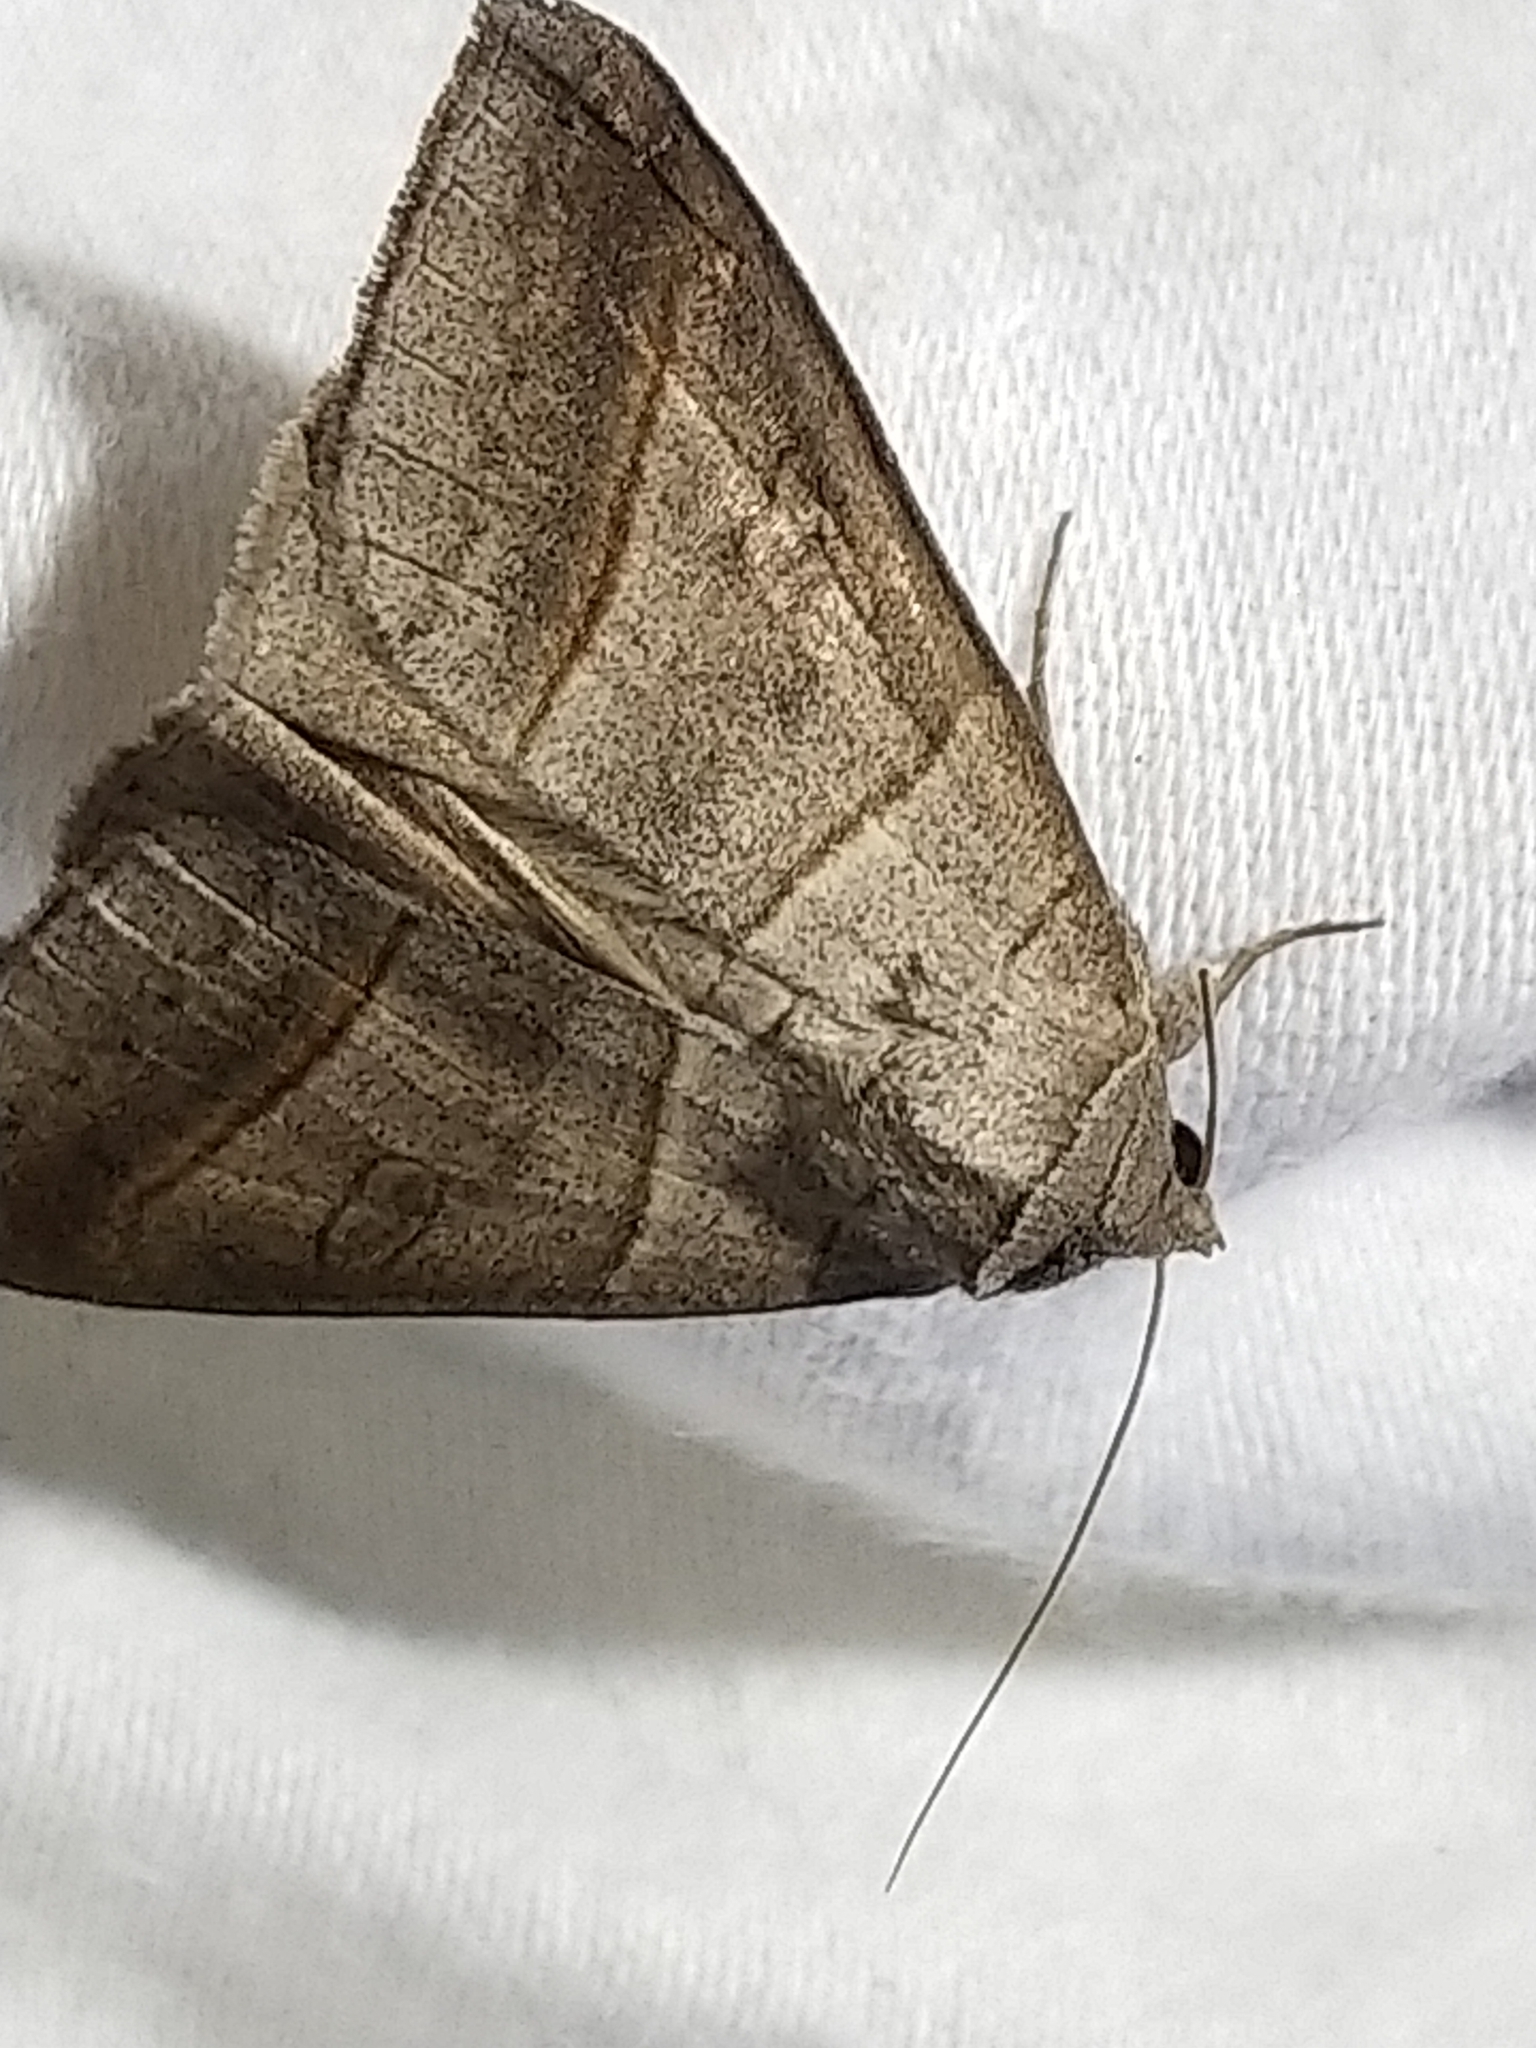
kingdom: Animalia
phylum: Arthropoda
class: Insecta
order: Lepidoptera
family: Erebidae
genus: Mocis
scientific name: Mocis texana
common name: Texas mocis moth
